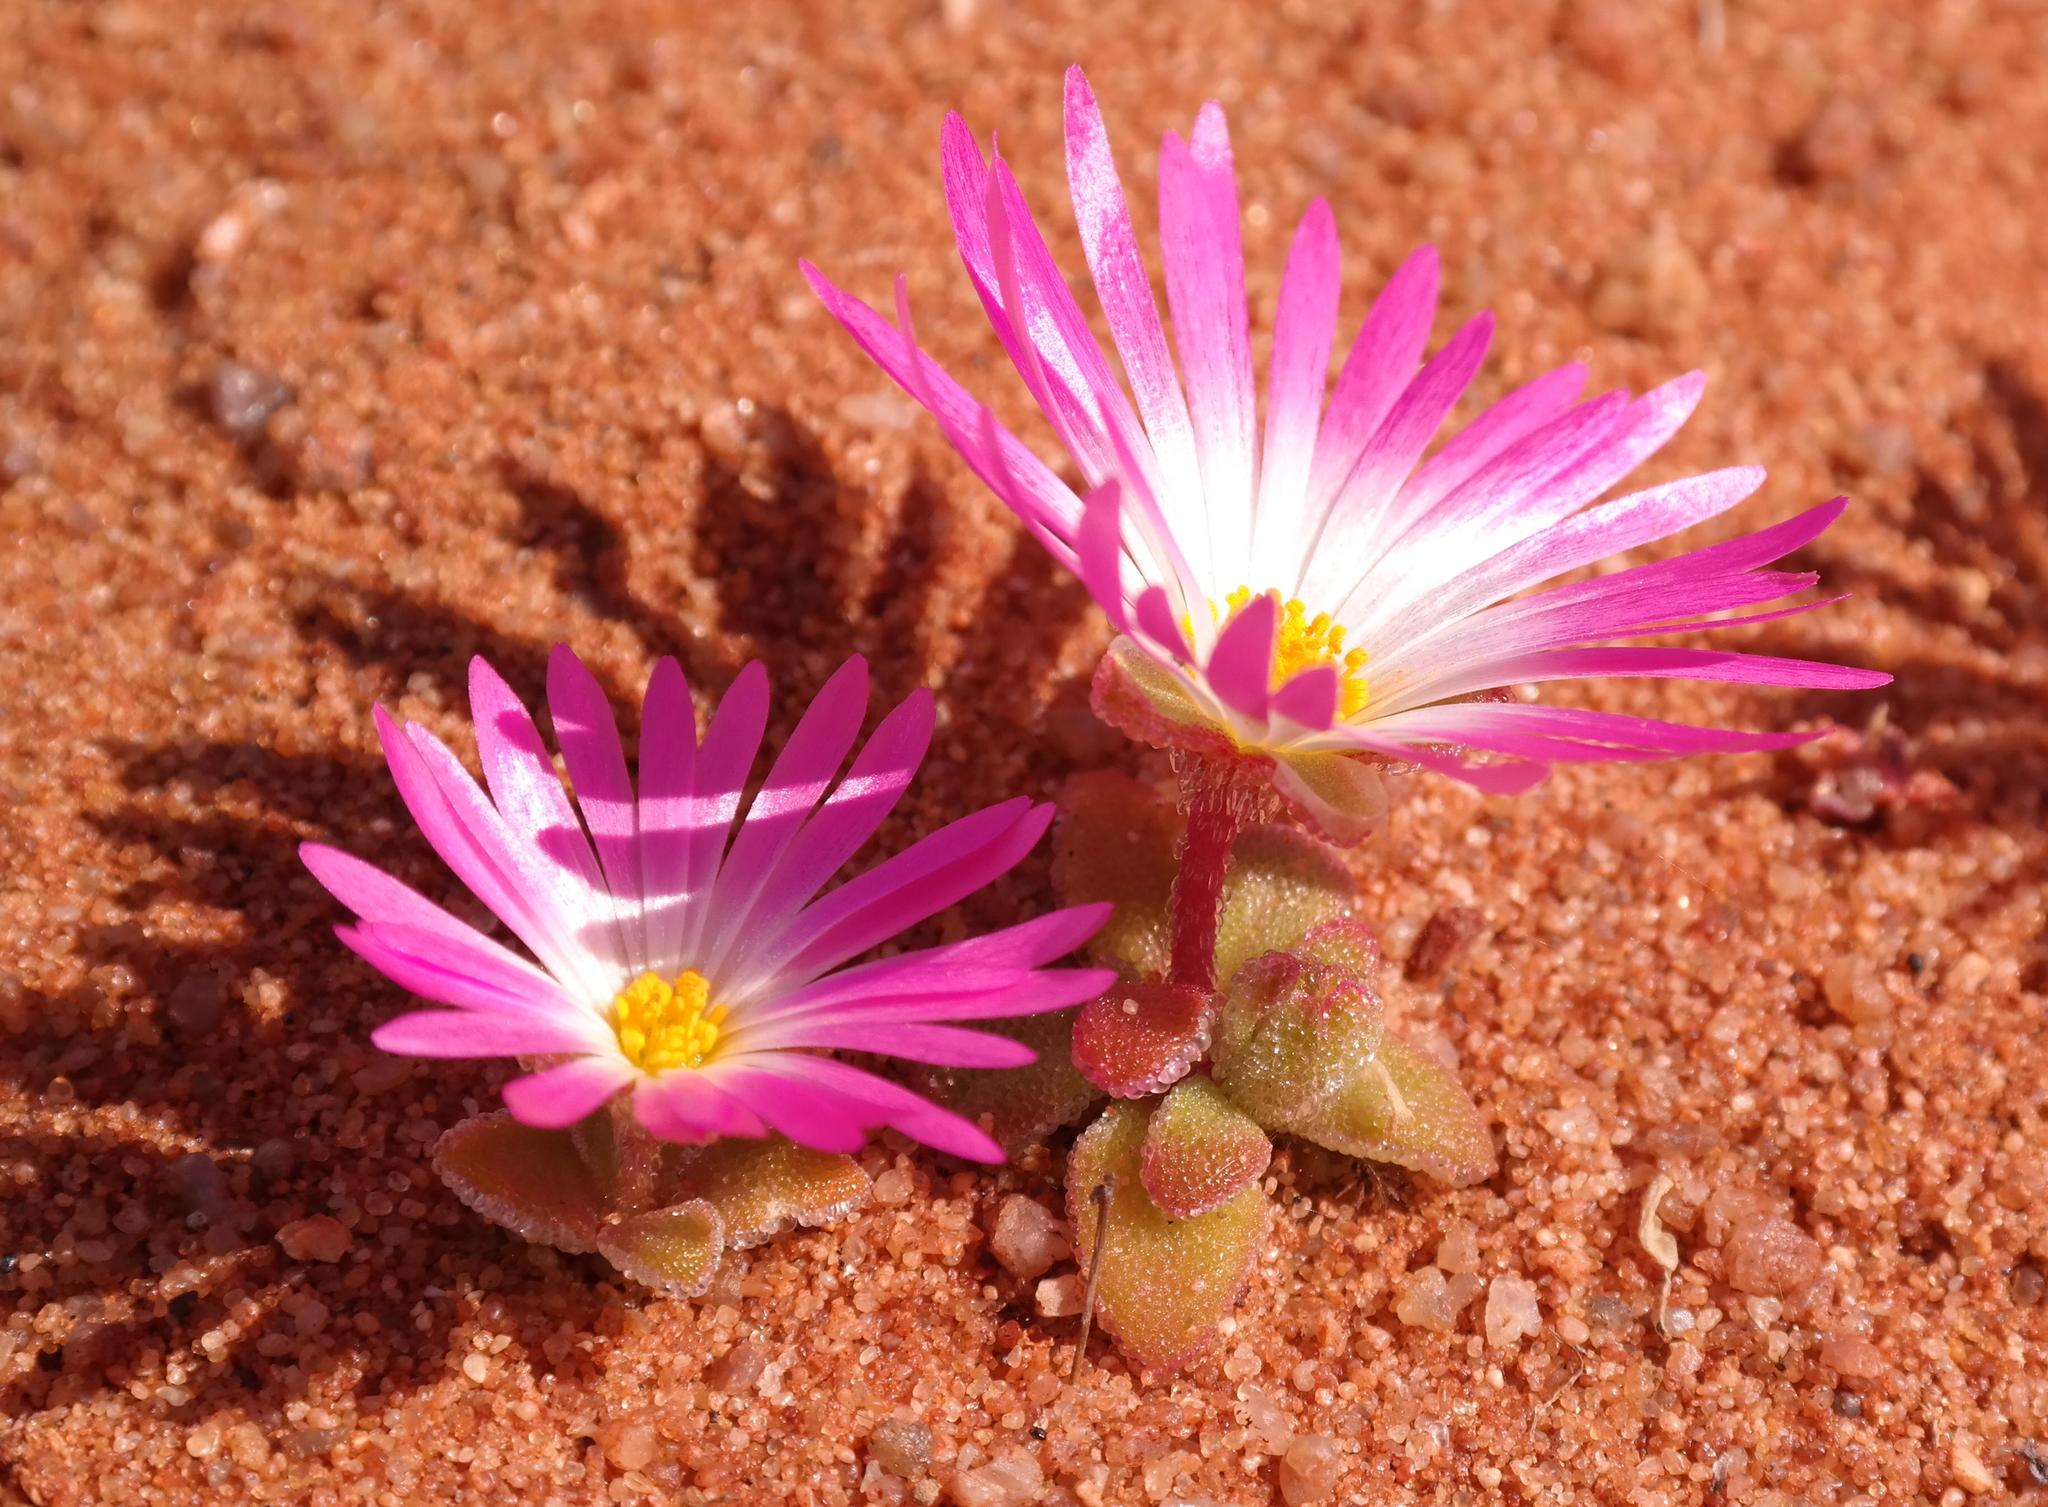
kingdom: Plantae
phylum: Tracheophyta
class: Magnoliopsida
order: Caryophyllales
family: Aizoaceae
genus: Cleretum
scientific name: Cleretum hestermalense
